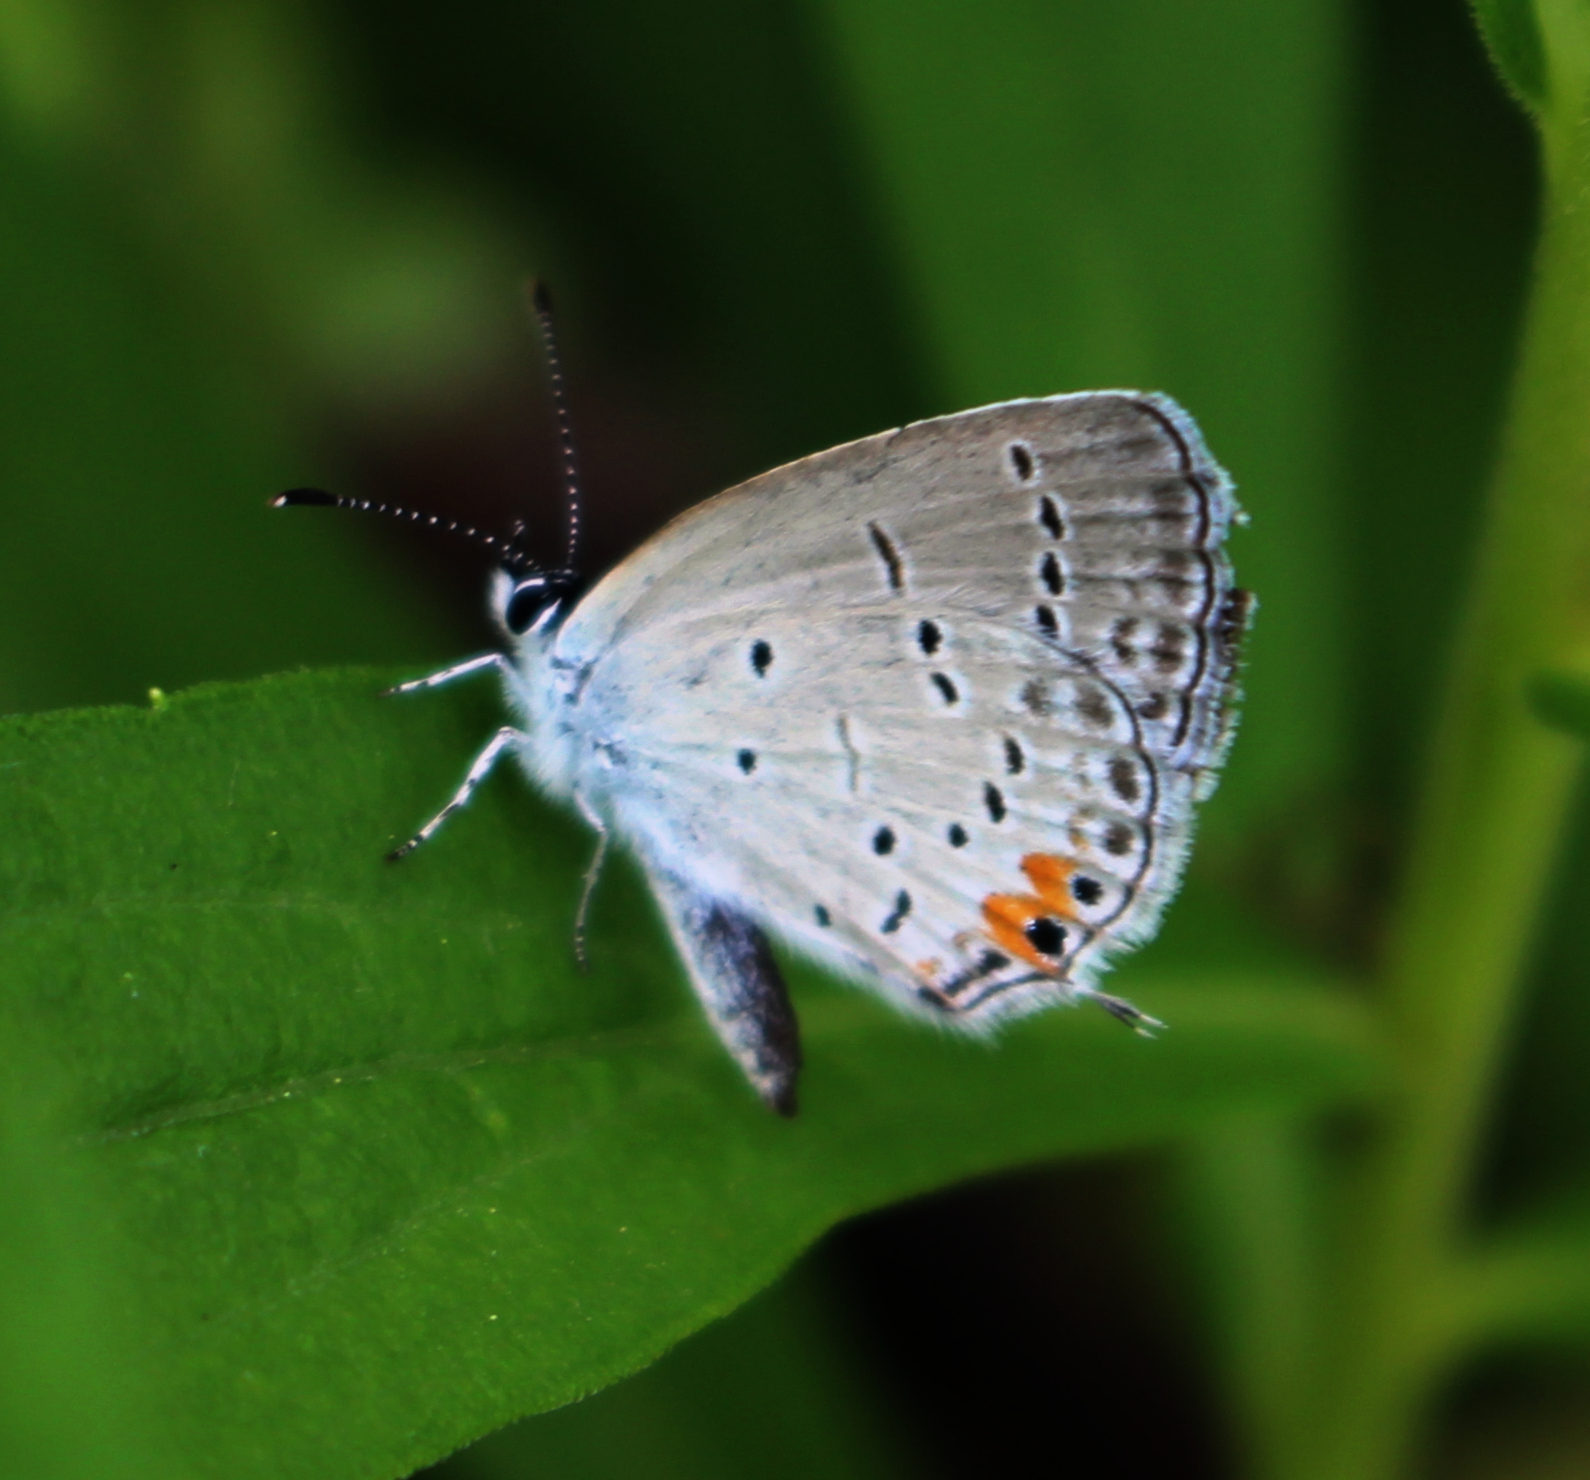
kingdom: Animalia
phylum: Arthropoda
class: Insecta
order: Lepidoptera
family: Lycaenidae
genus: Elkalyce
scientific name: Elkalyce comyntas
